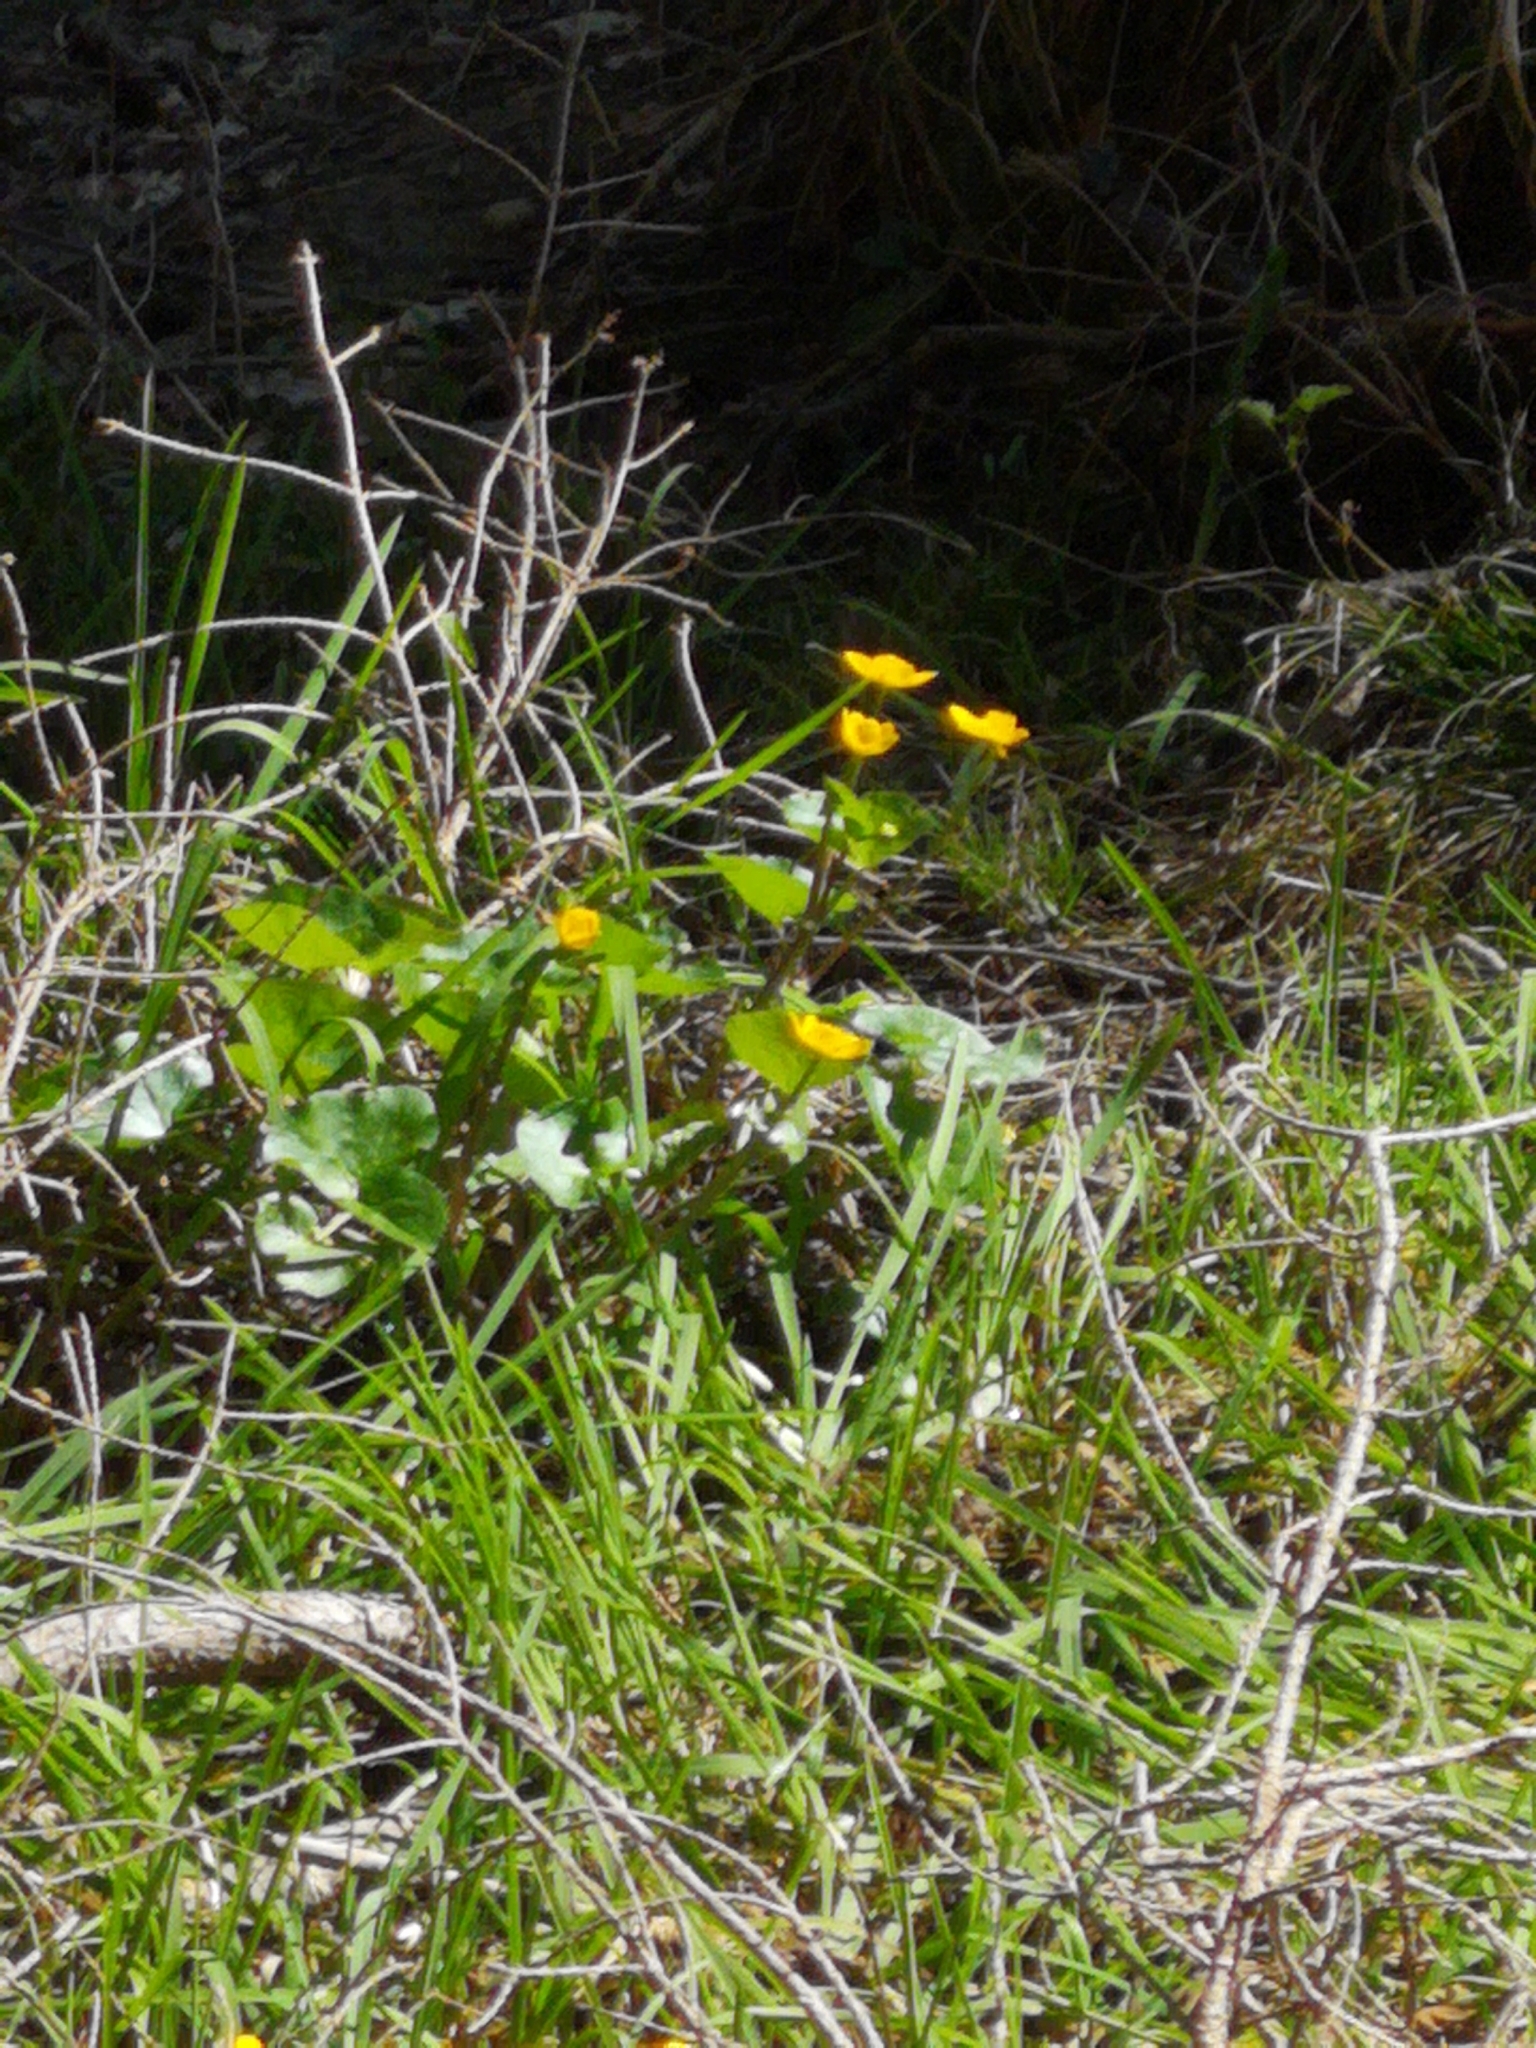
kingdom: Plantae
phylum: Tracheophyta
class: Magnoliopsida
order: Ranunculales
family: Ranunculaceae
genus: Caltha
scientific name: Caltha palustris
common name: Marsh marigold
